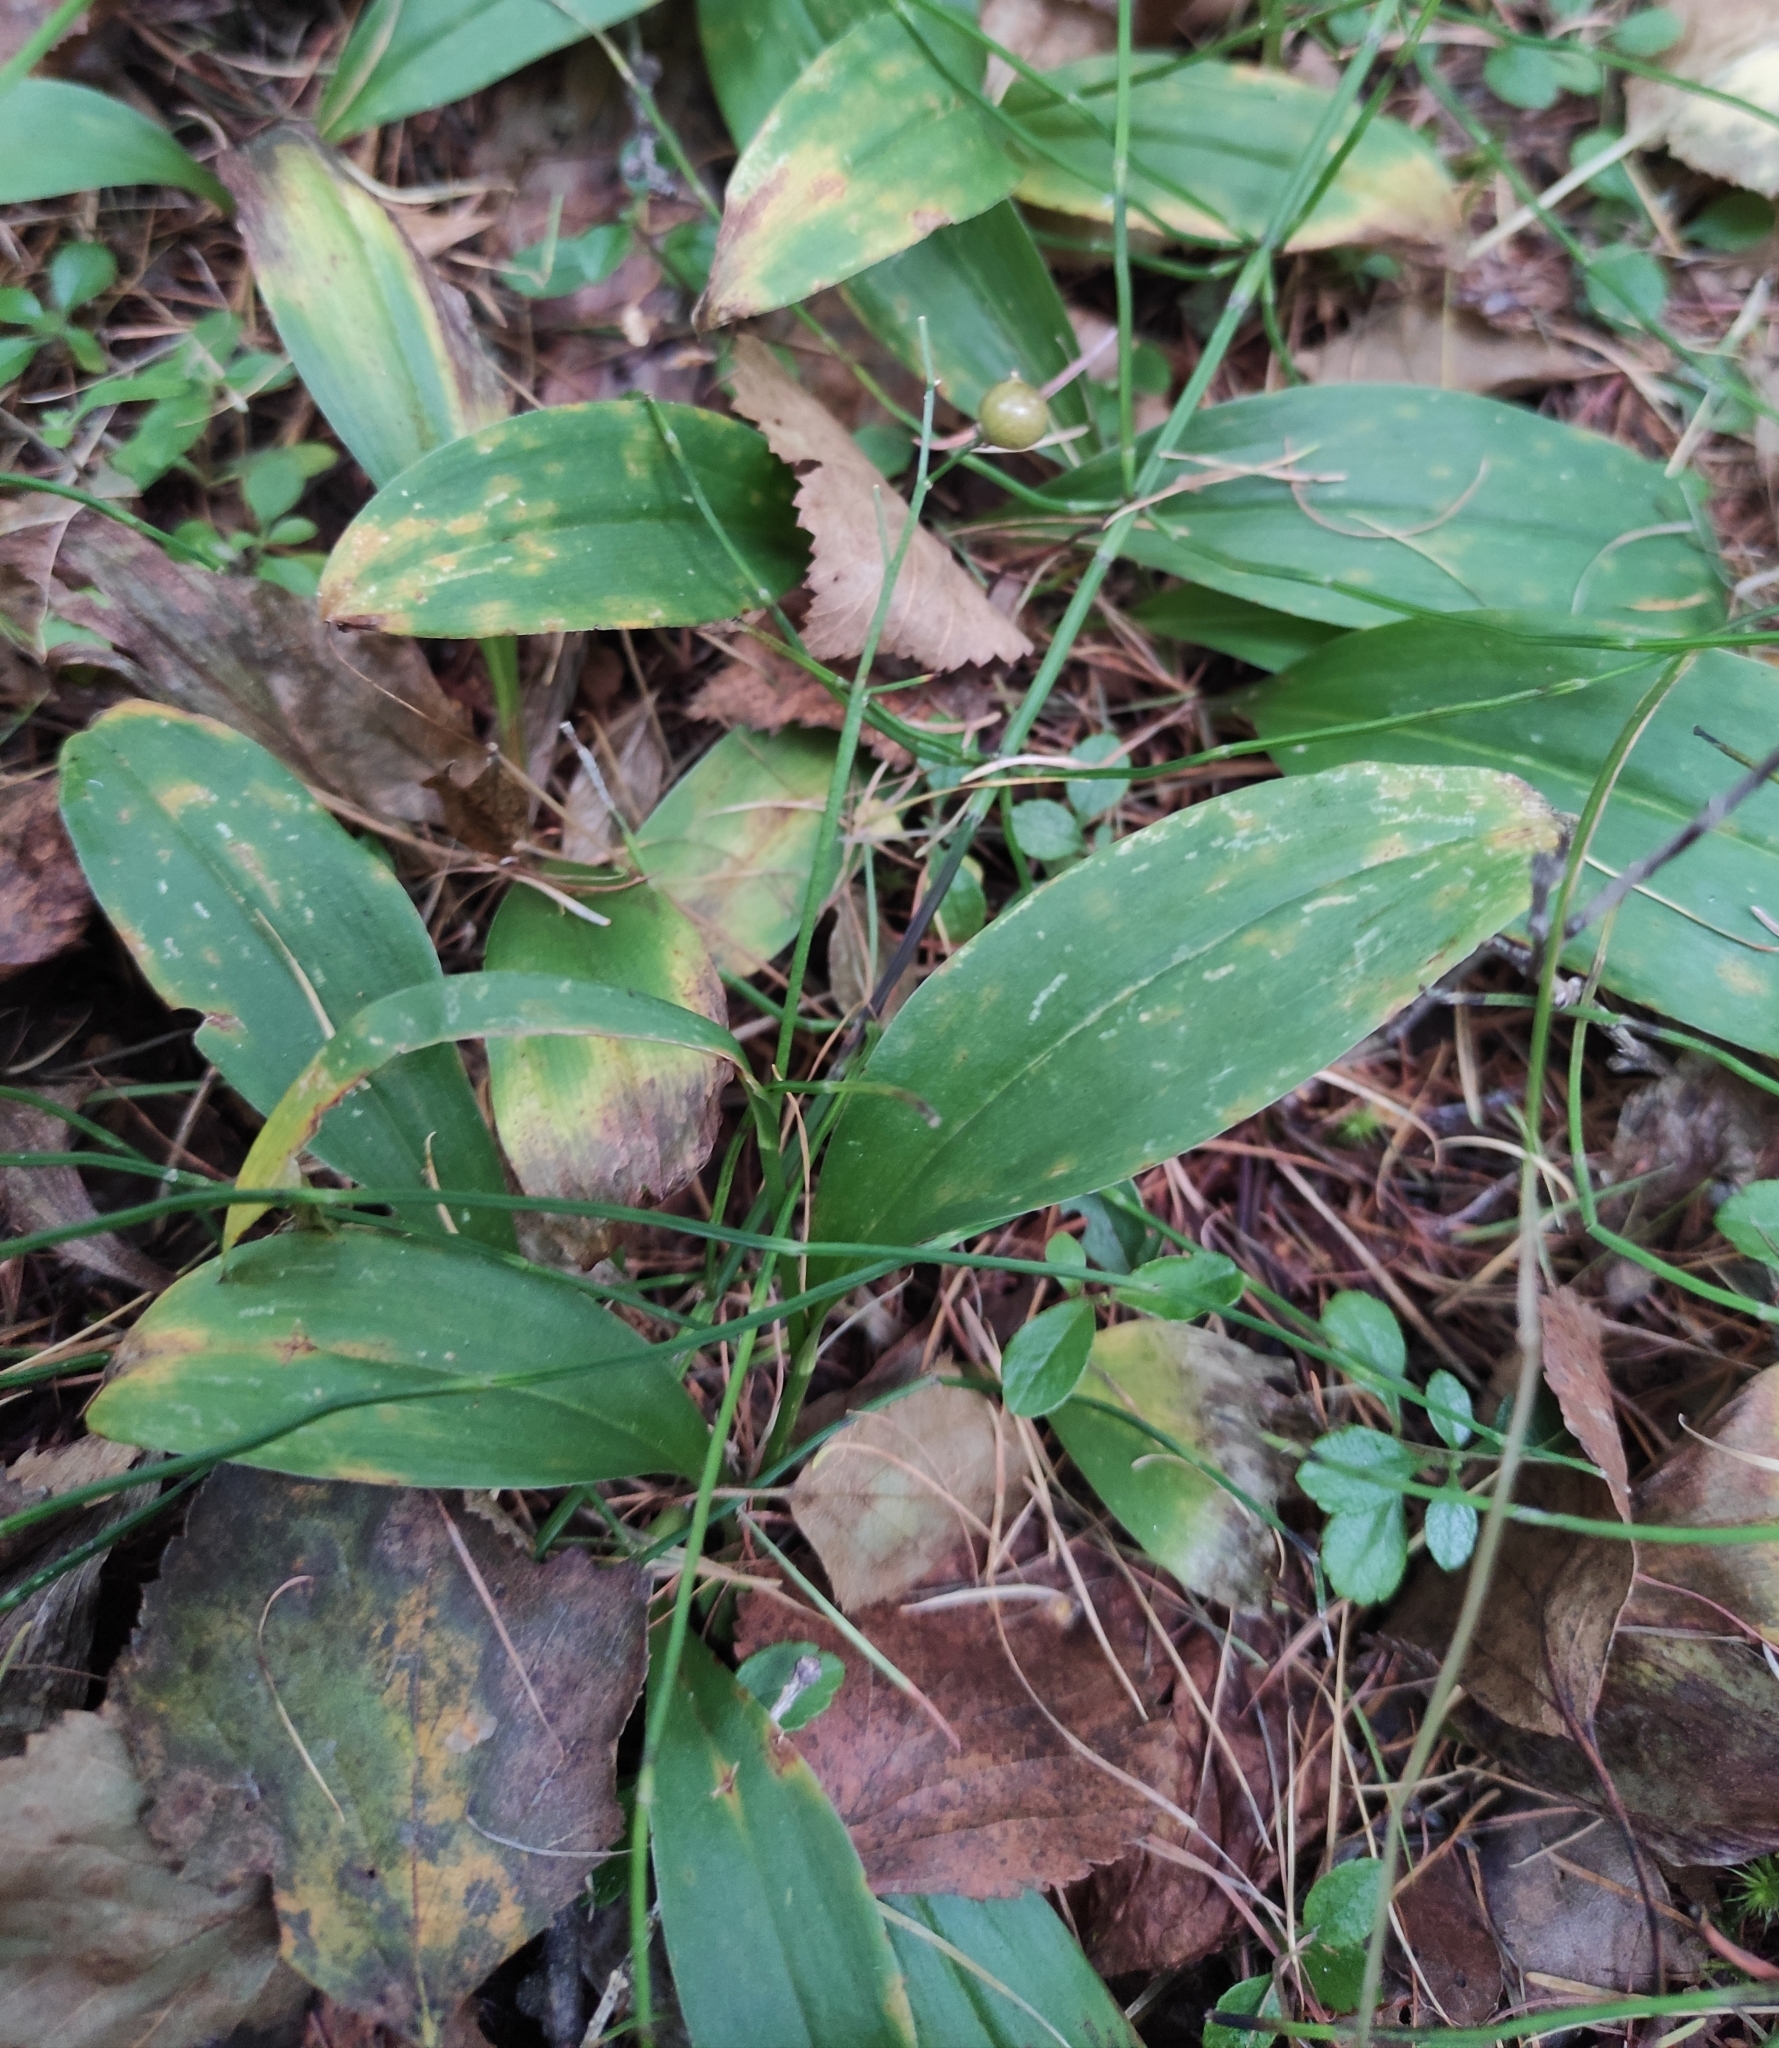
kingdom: Plantae
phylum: Tracheophyta
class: Liliopsida
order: Asparagales
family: Asparagaceae
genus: Maianthemum
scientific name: Maianthemum trifolium
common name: Swamp false solomon's seal
